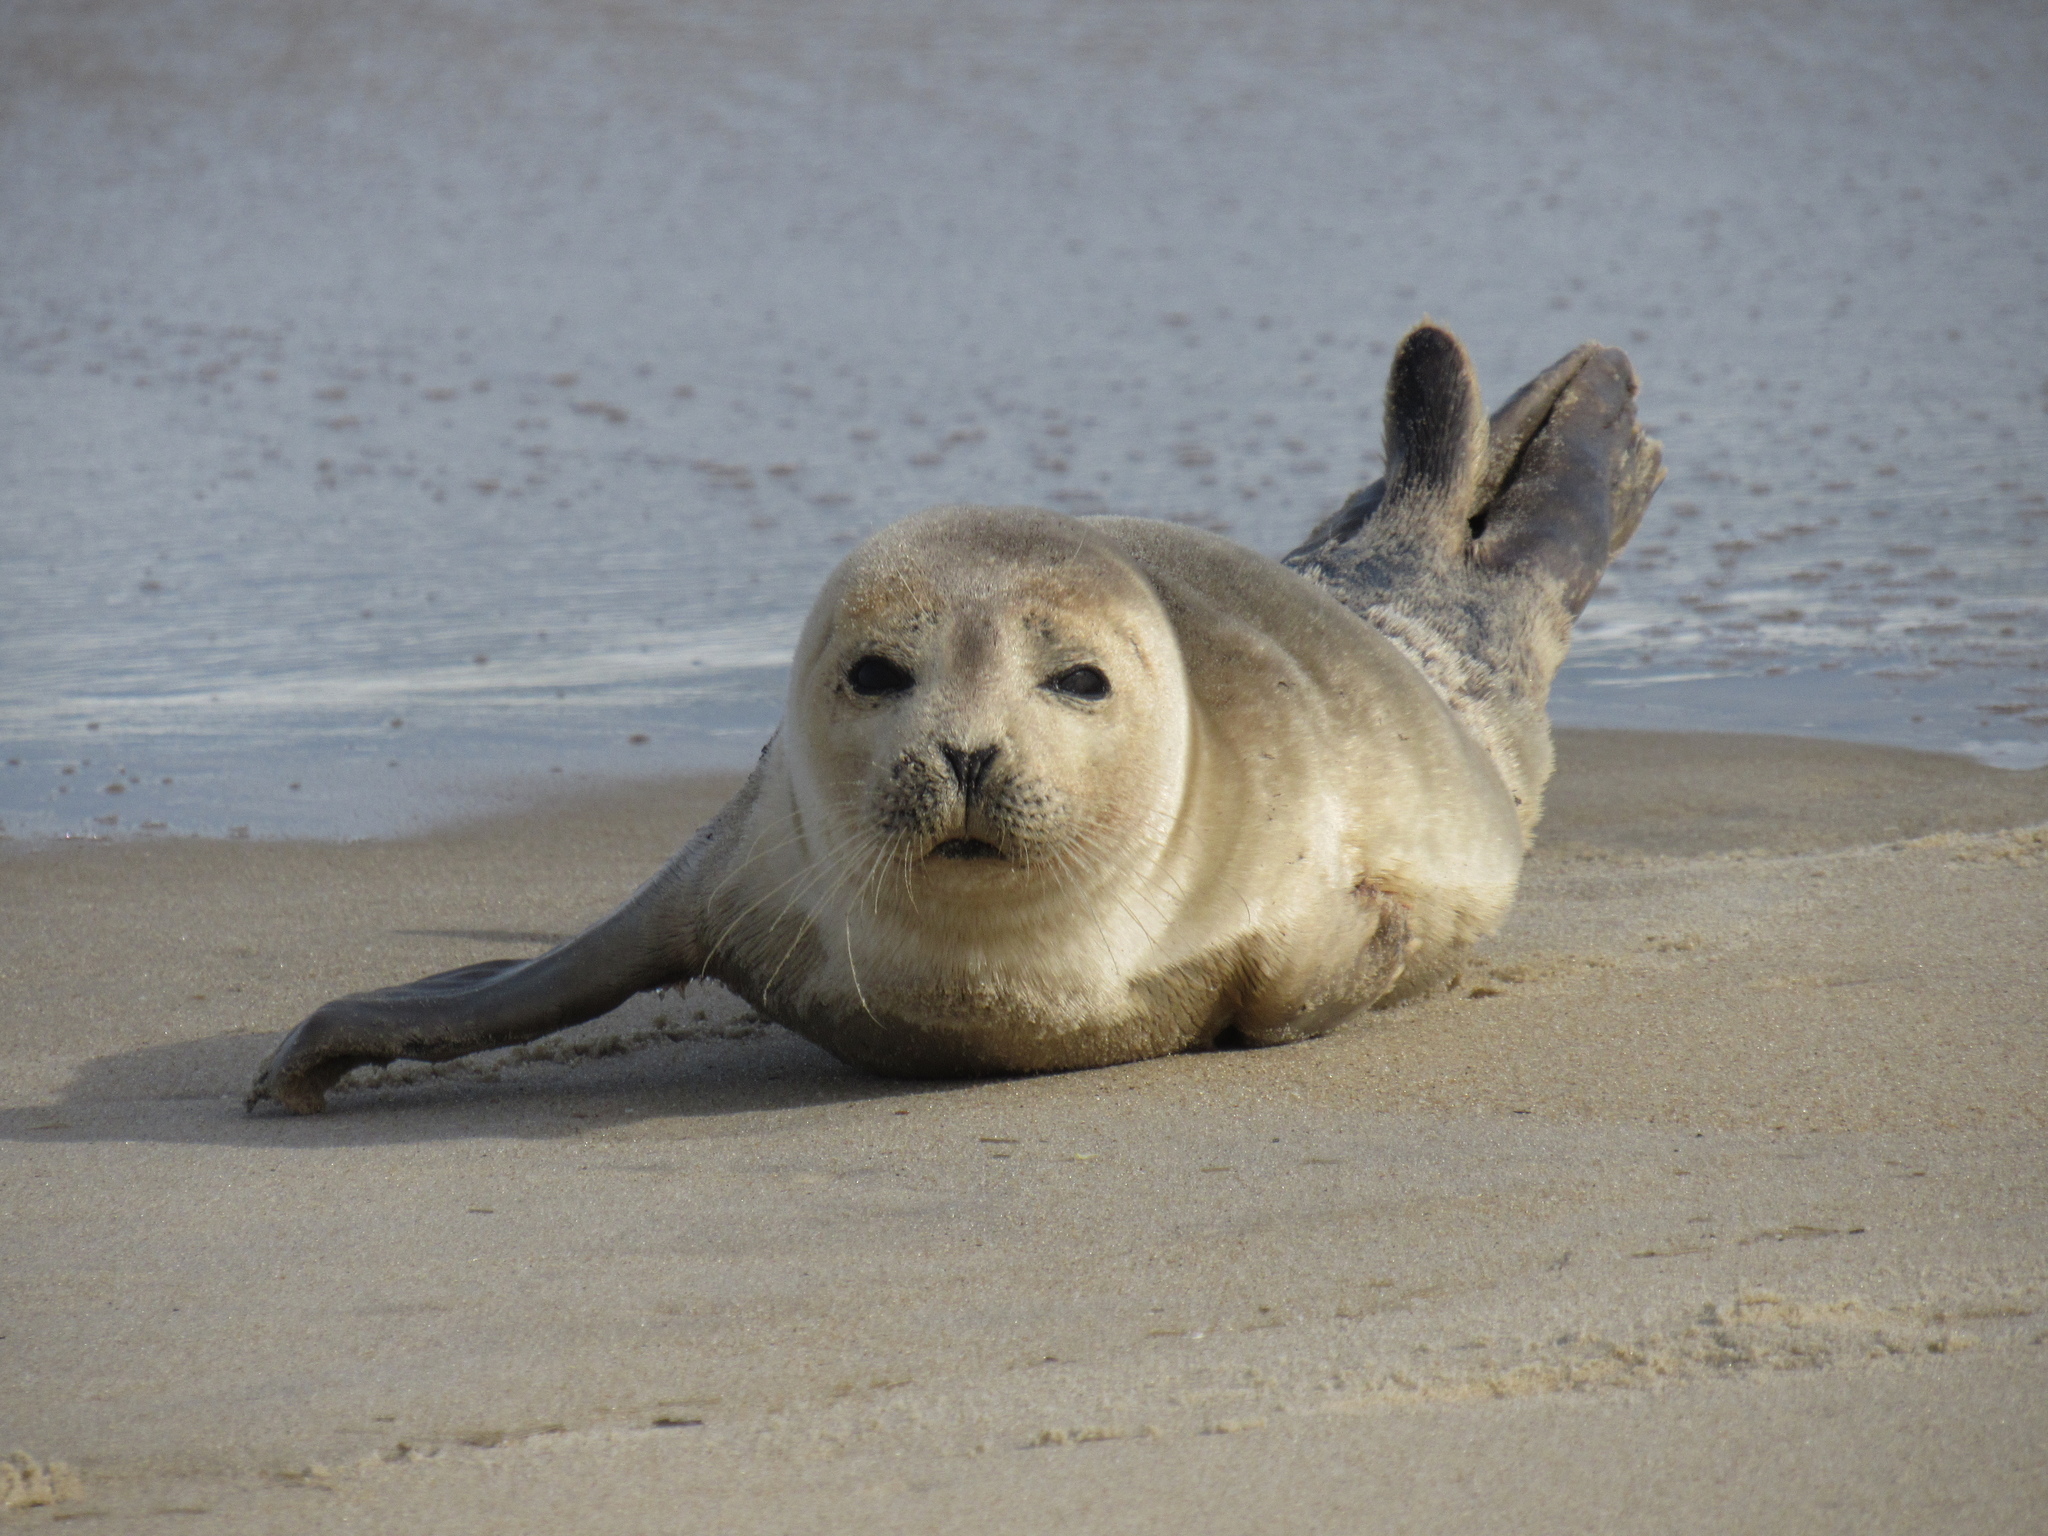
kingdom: Animalia
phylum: Chordata
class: Mammalia
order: Carnivora
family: Phocidae
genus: Phoca
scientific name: Phoca vitulina
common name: Harbor seal
